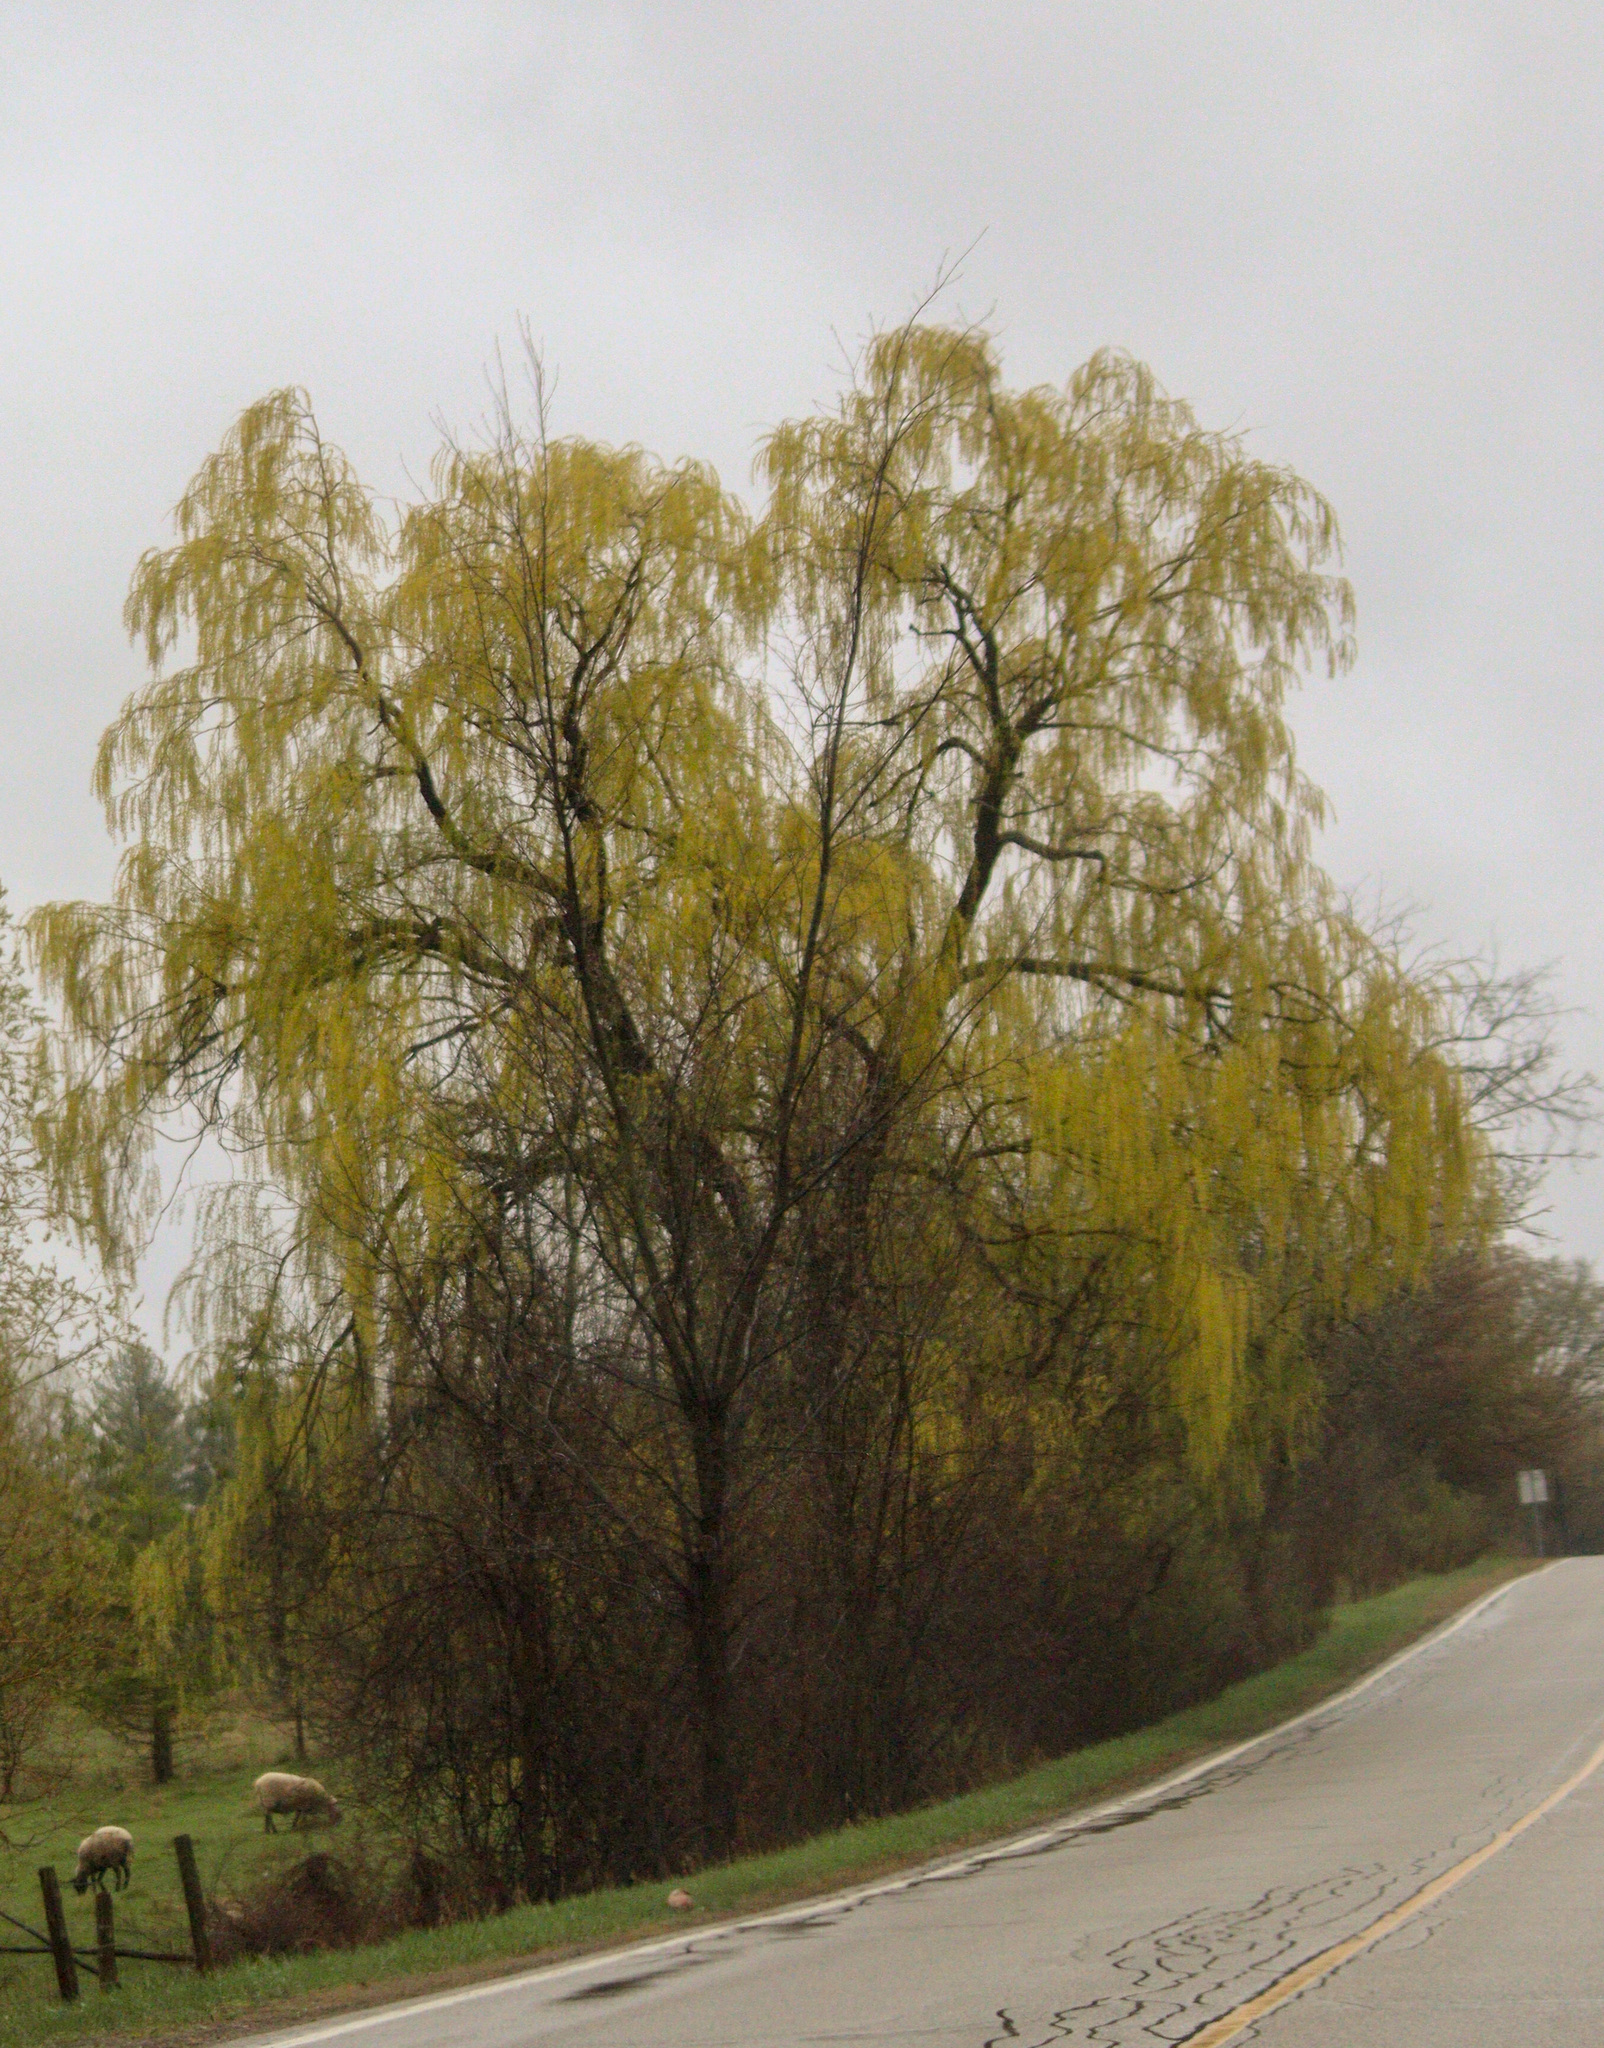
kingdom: Plantae
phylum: Tracheophyta
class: Magnoliopsida
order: Malpighiales
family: Salicaceae
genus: Salix
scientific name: Salix pendulina
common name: Wisconsin weeping willow
